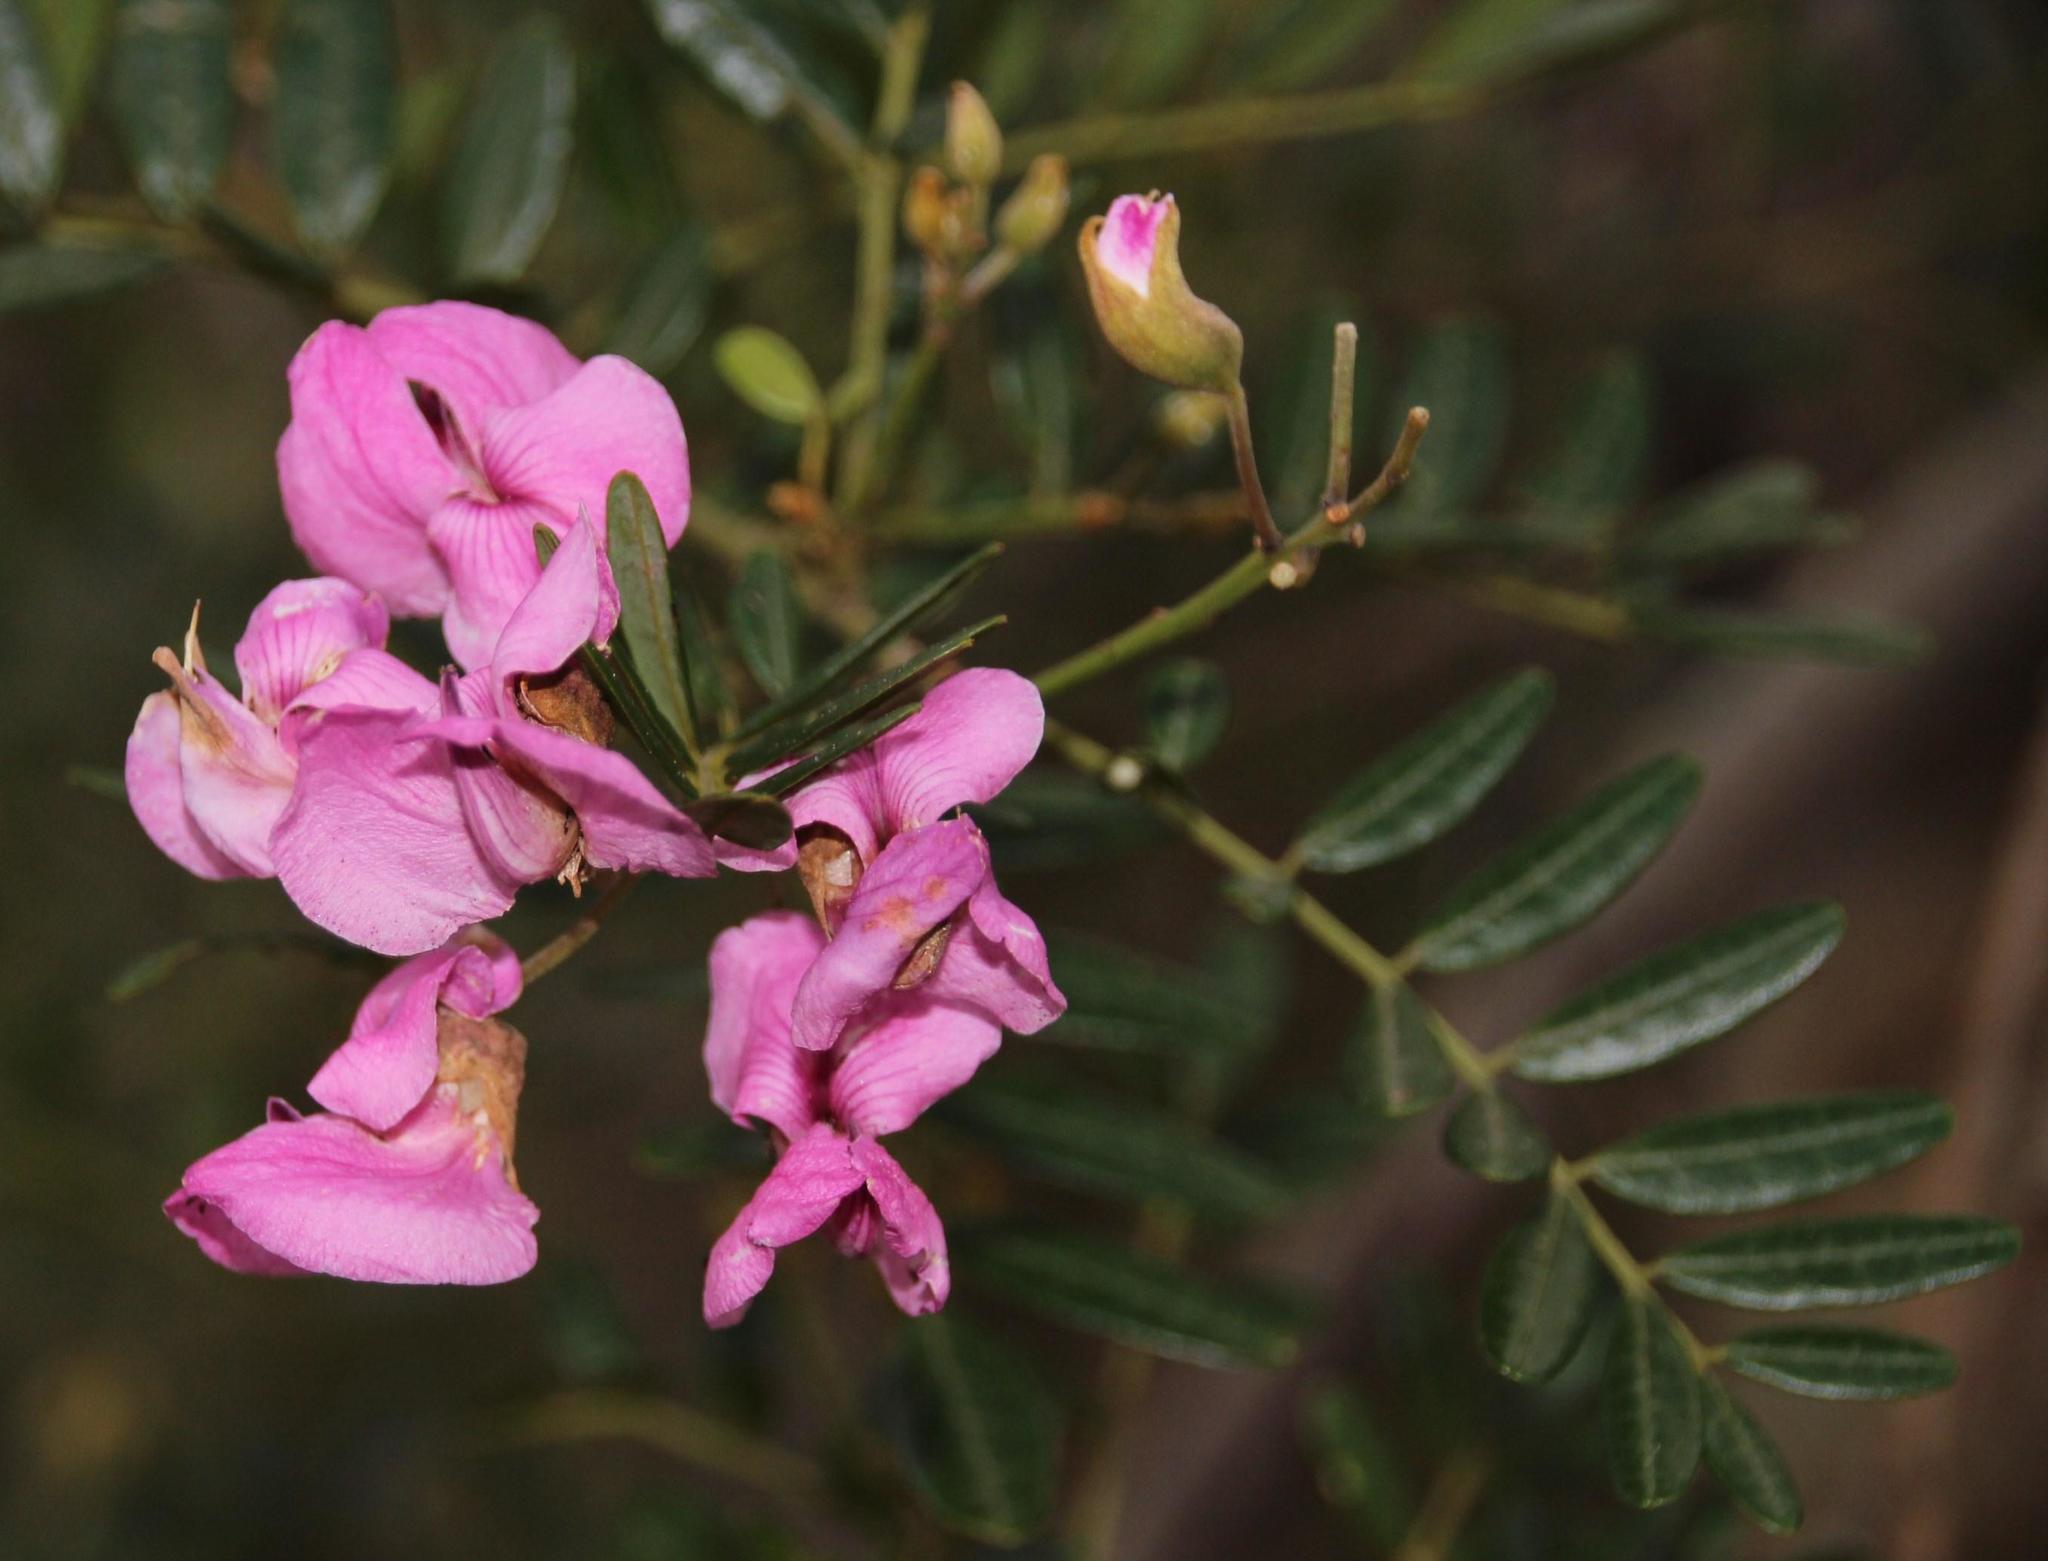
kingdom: Plantae
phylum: Tracheophyta
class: Magnoliopsida
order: Fabales
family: Fabaceae
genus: Virgilia
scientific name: Virgilia oroboides
